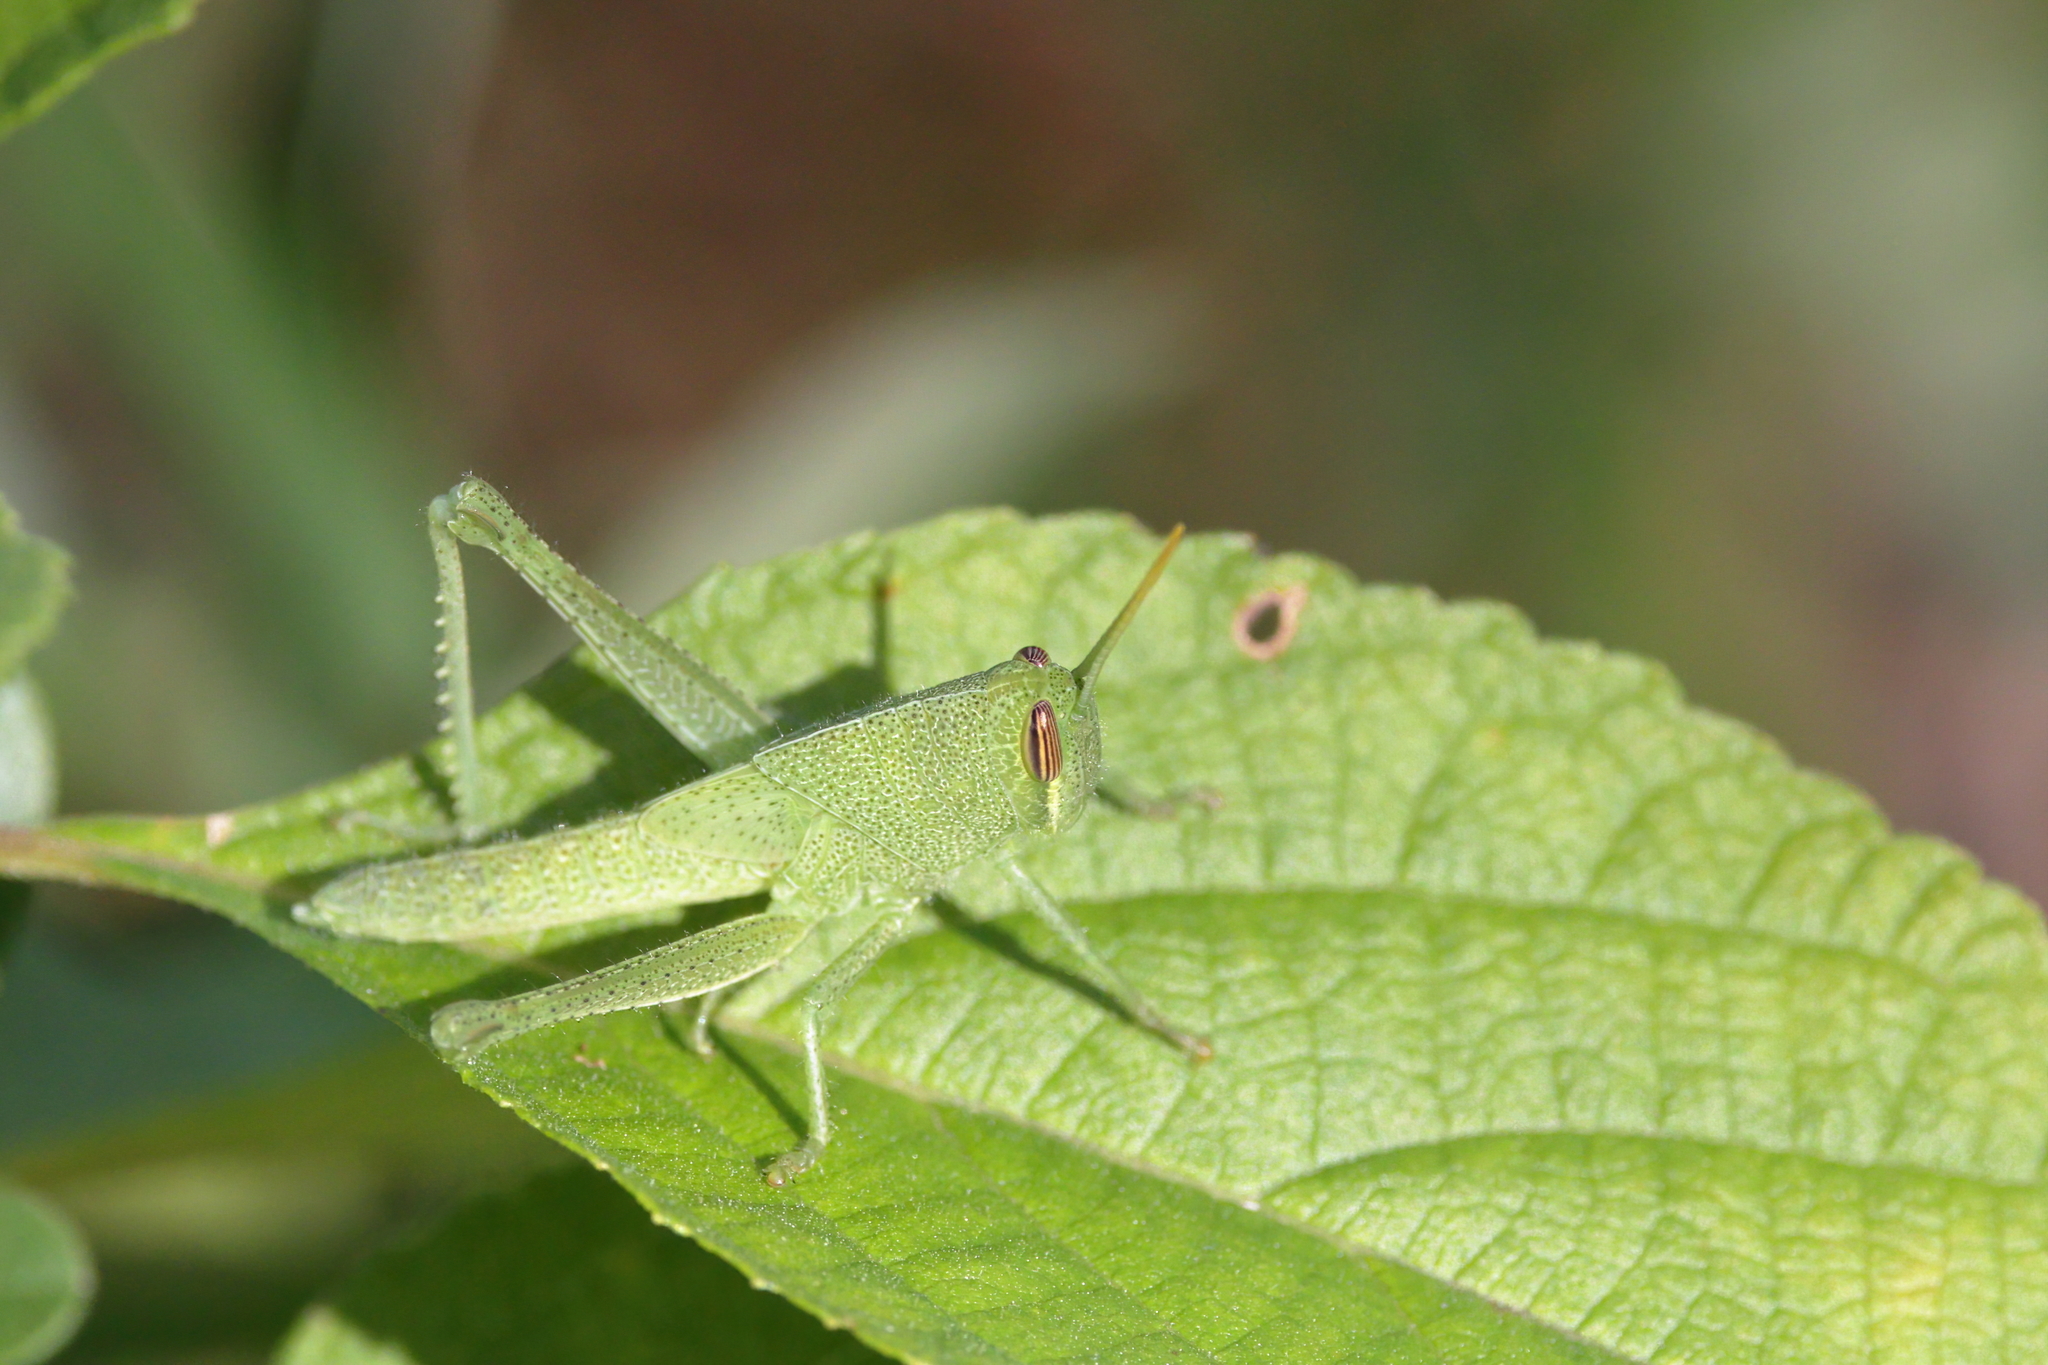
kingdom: Animalia
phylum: Arthropoda
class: Insecta
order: Orthoptera
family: Acrididae
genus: Schistocerca
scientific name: Schistocerca damnifica
